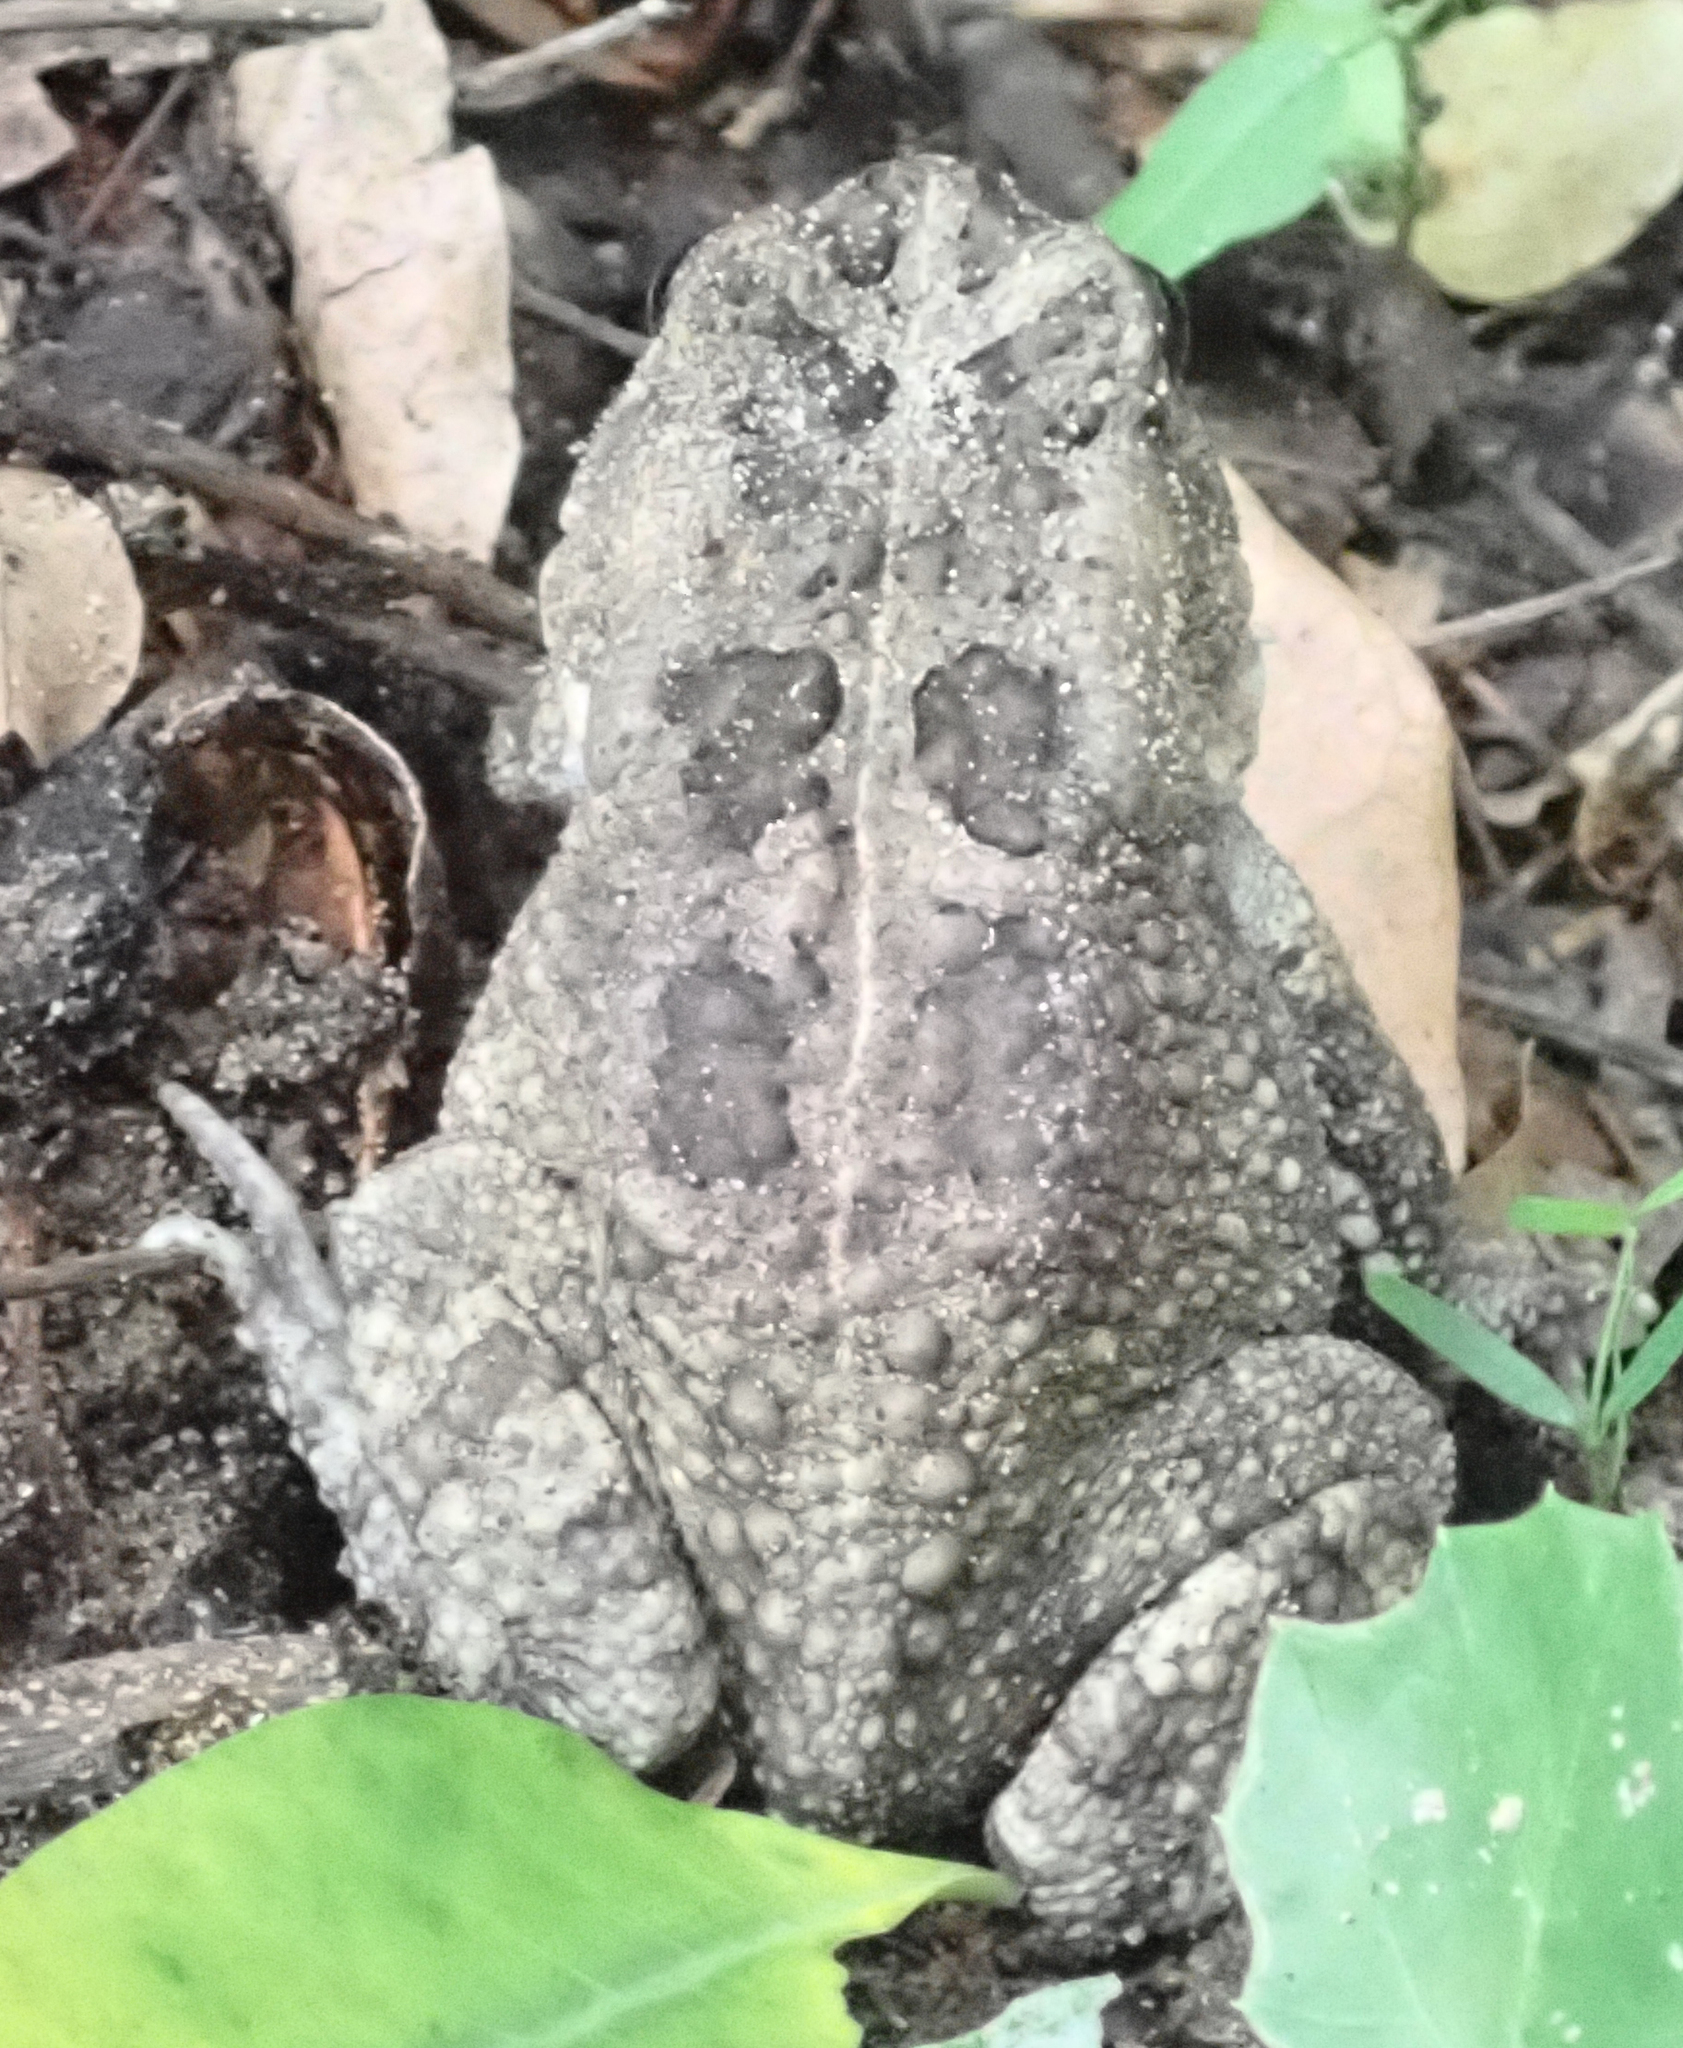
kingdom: Animalia
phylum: Chordata
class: Amphibia
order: Anura
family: Bufonidae
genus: Sclerophrys
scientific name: Sclerophrys gutturalis
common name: African common toad
